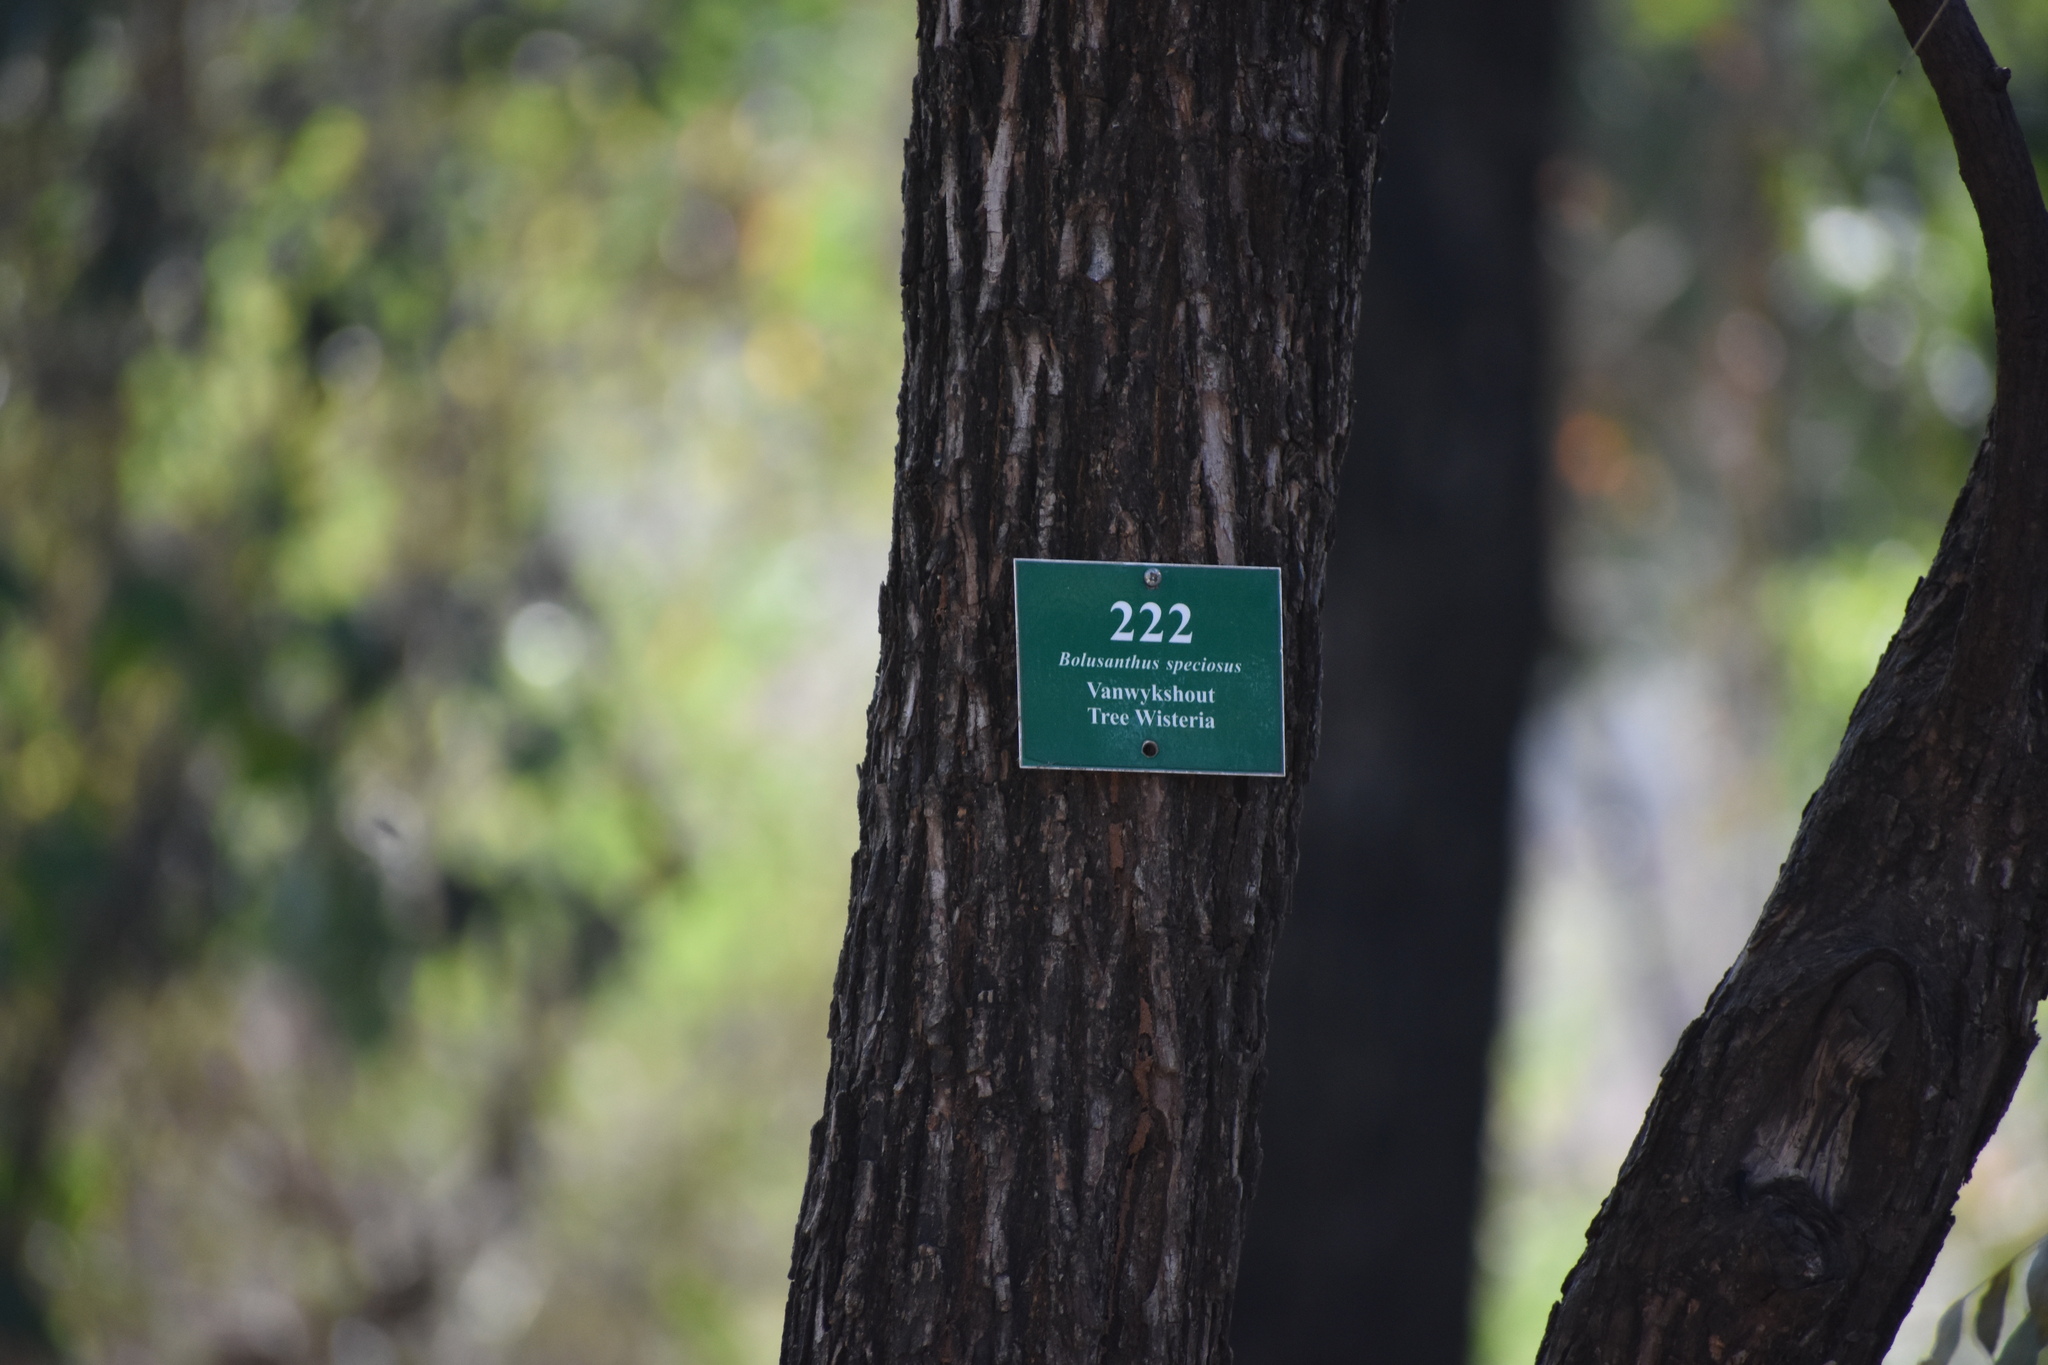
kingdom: Plantae
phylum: Tracheophyta
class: Magnoliopsida
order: Fabales
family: Fabaceae
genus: Bolusanthus
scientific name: Bolusanthus speciosus
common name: Tree wisteria
